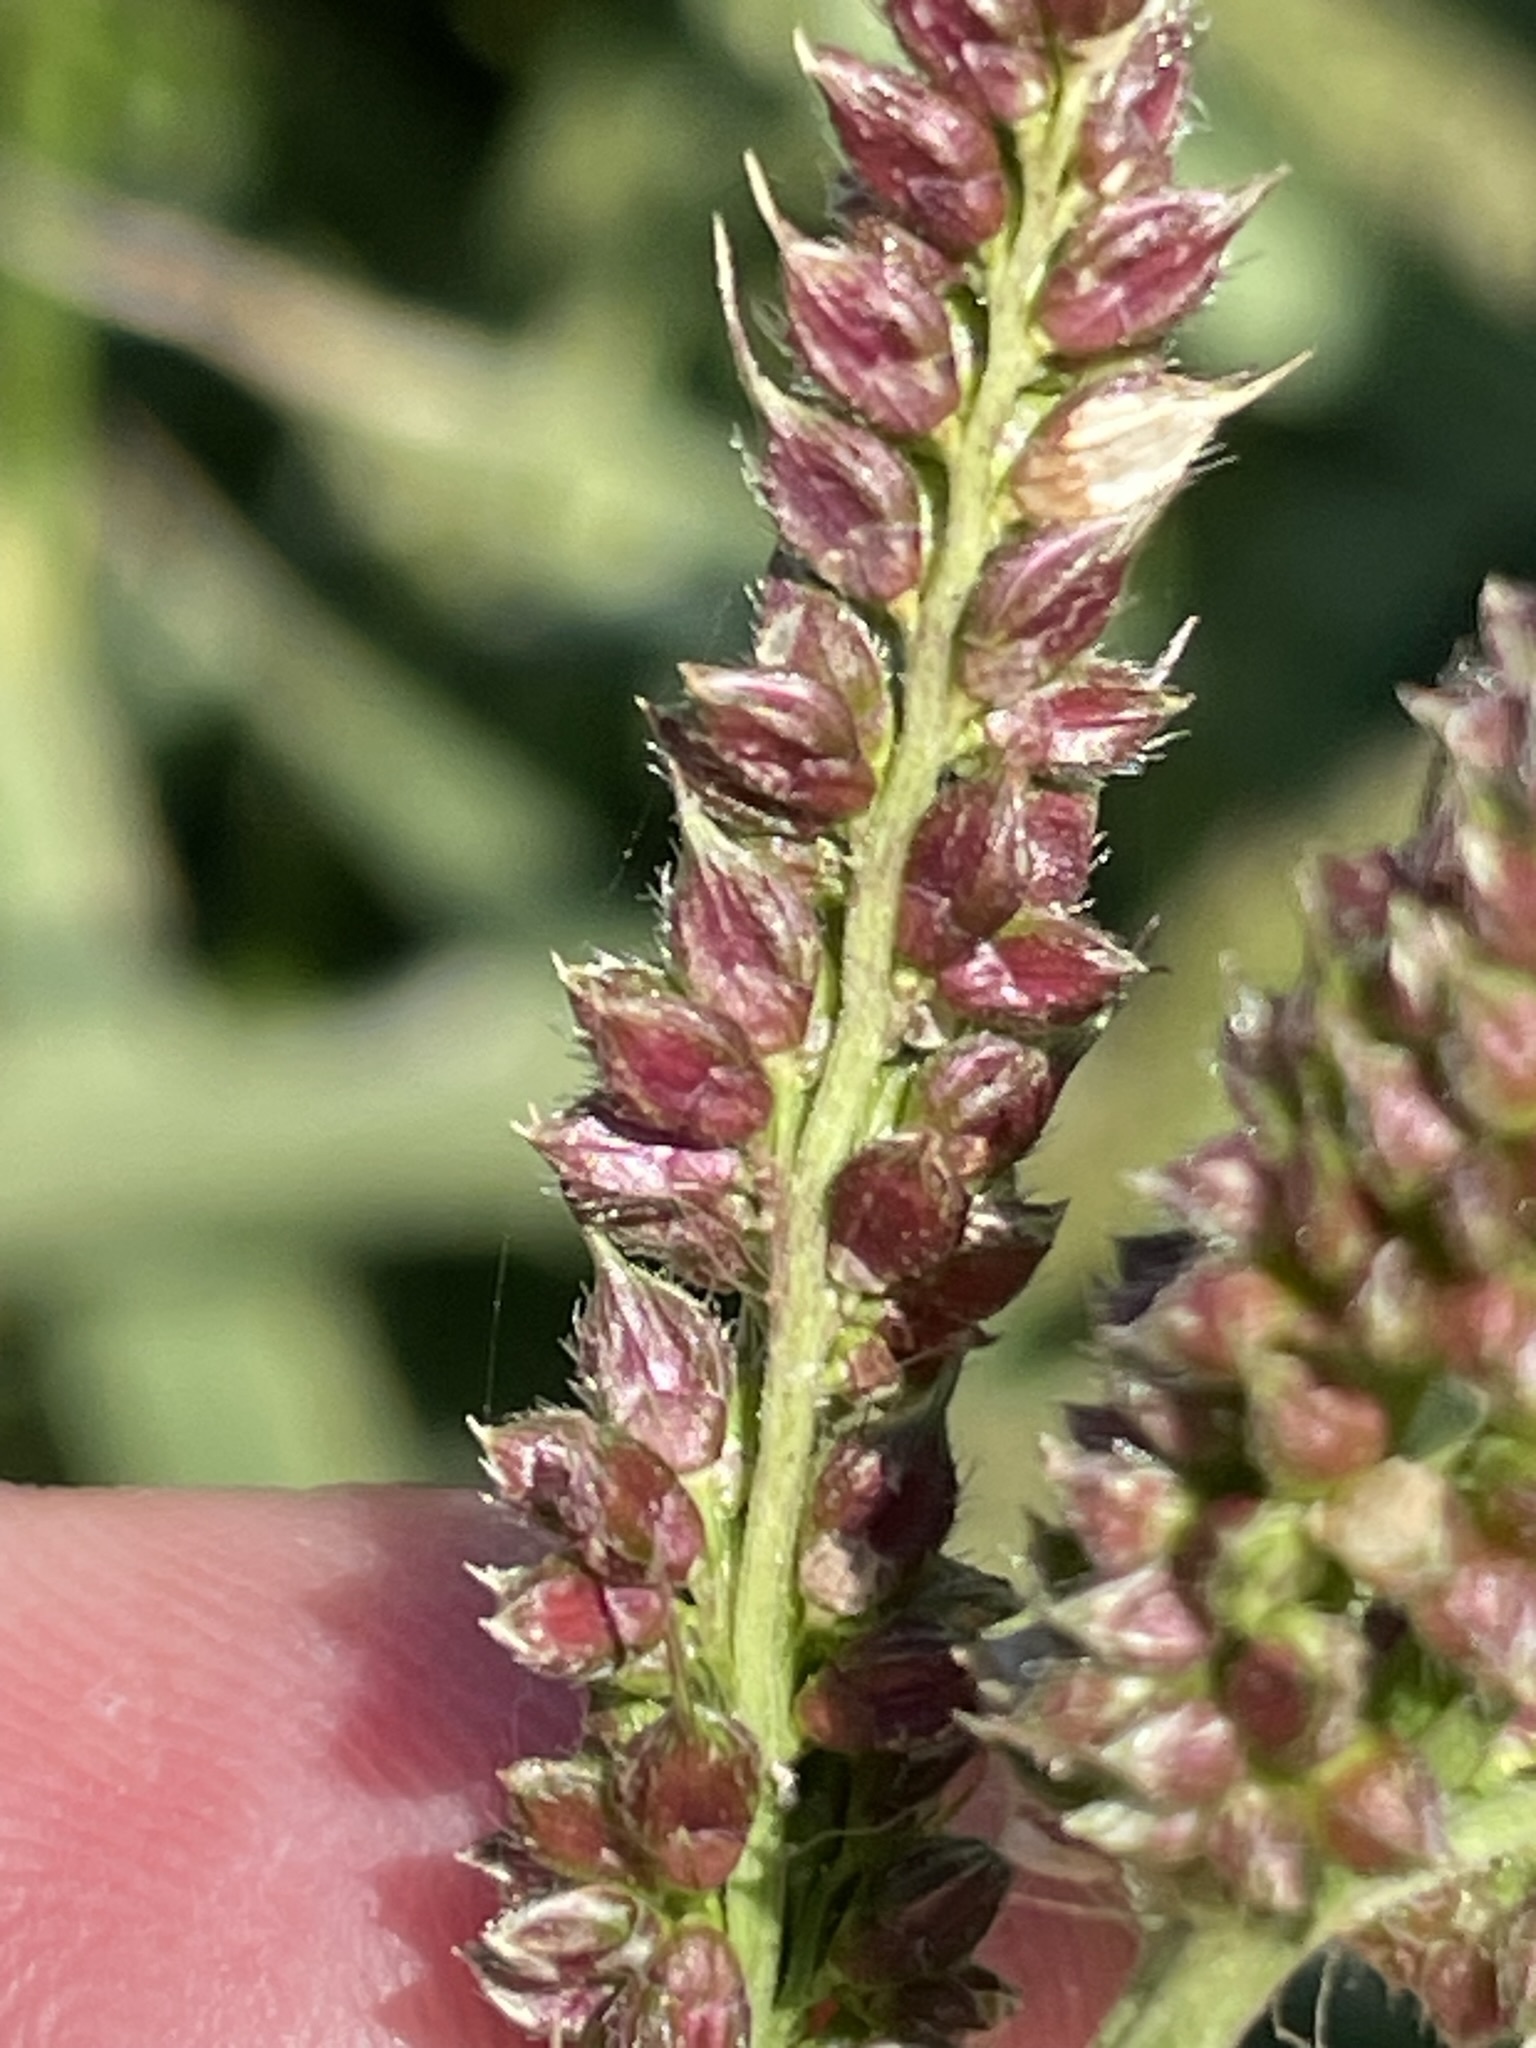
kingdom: Plantae
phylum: Tracheophyta
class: Liliopsida
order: Poales
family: Poaceae
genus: Echinochloa
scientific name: Echinochloa crus-galli
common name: Cockspur
